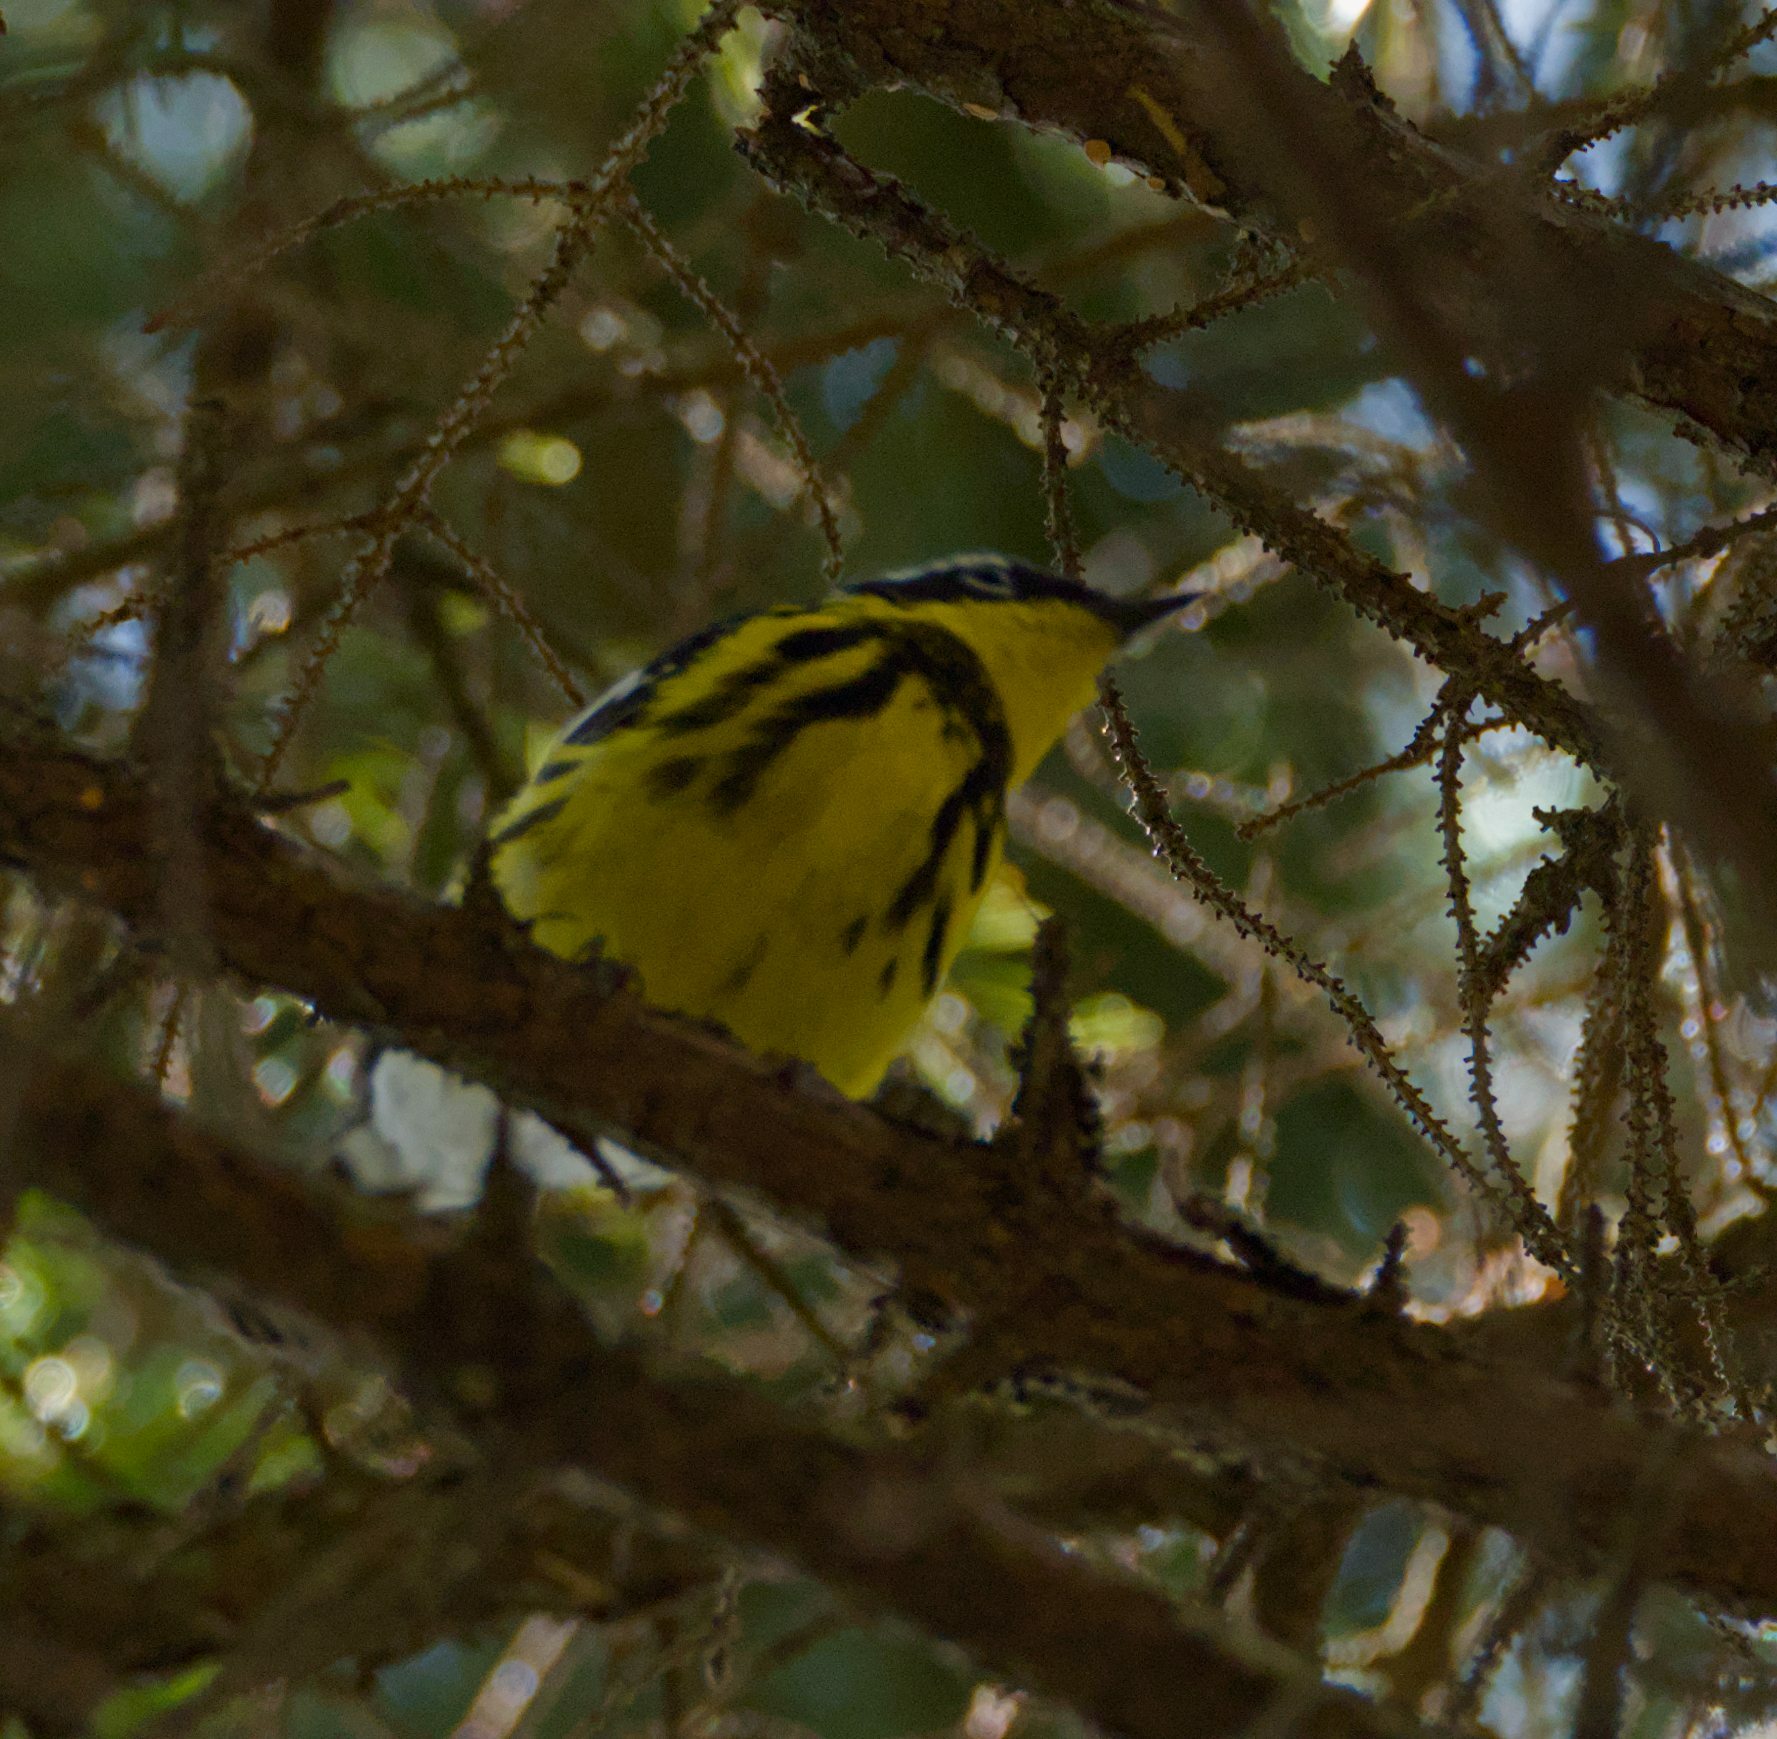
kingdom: Animalia
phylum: Chordata
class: Aves
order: Passeriformes
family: Parulidae
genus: Setophaga
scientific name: Setophaga magnolia
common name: Magnolia warbler
